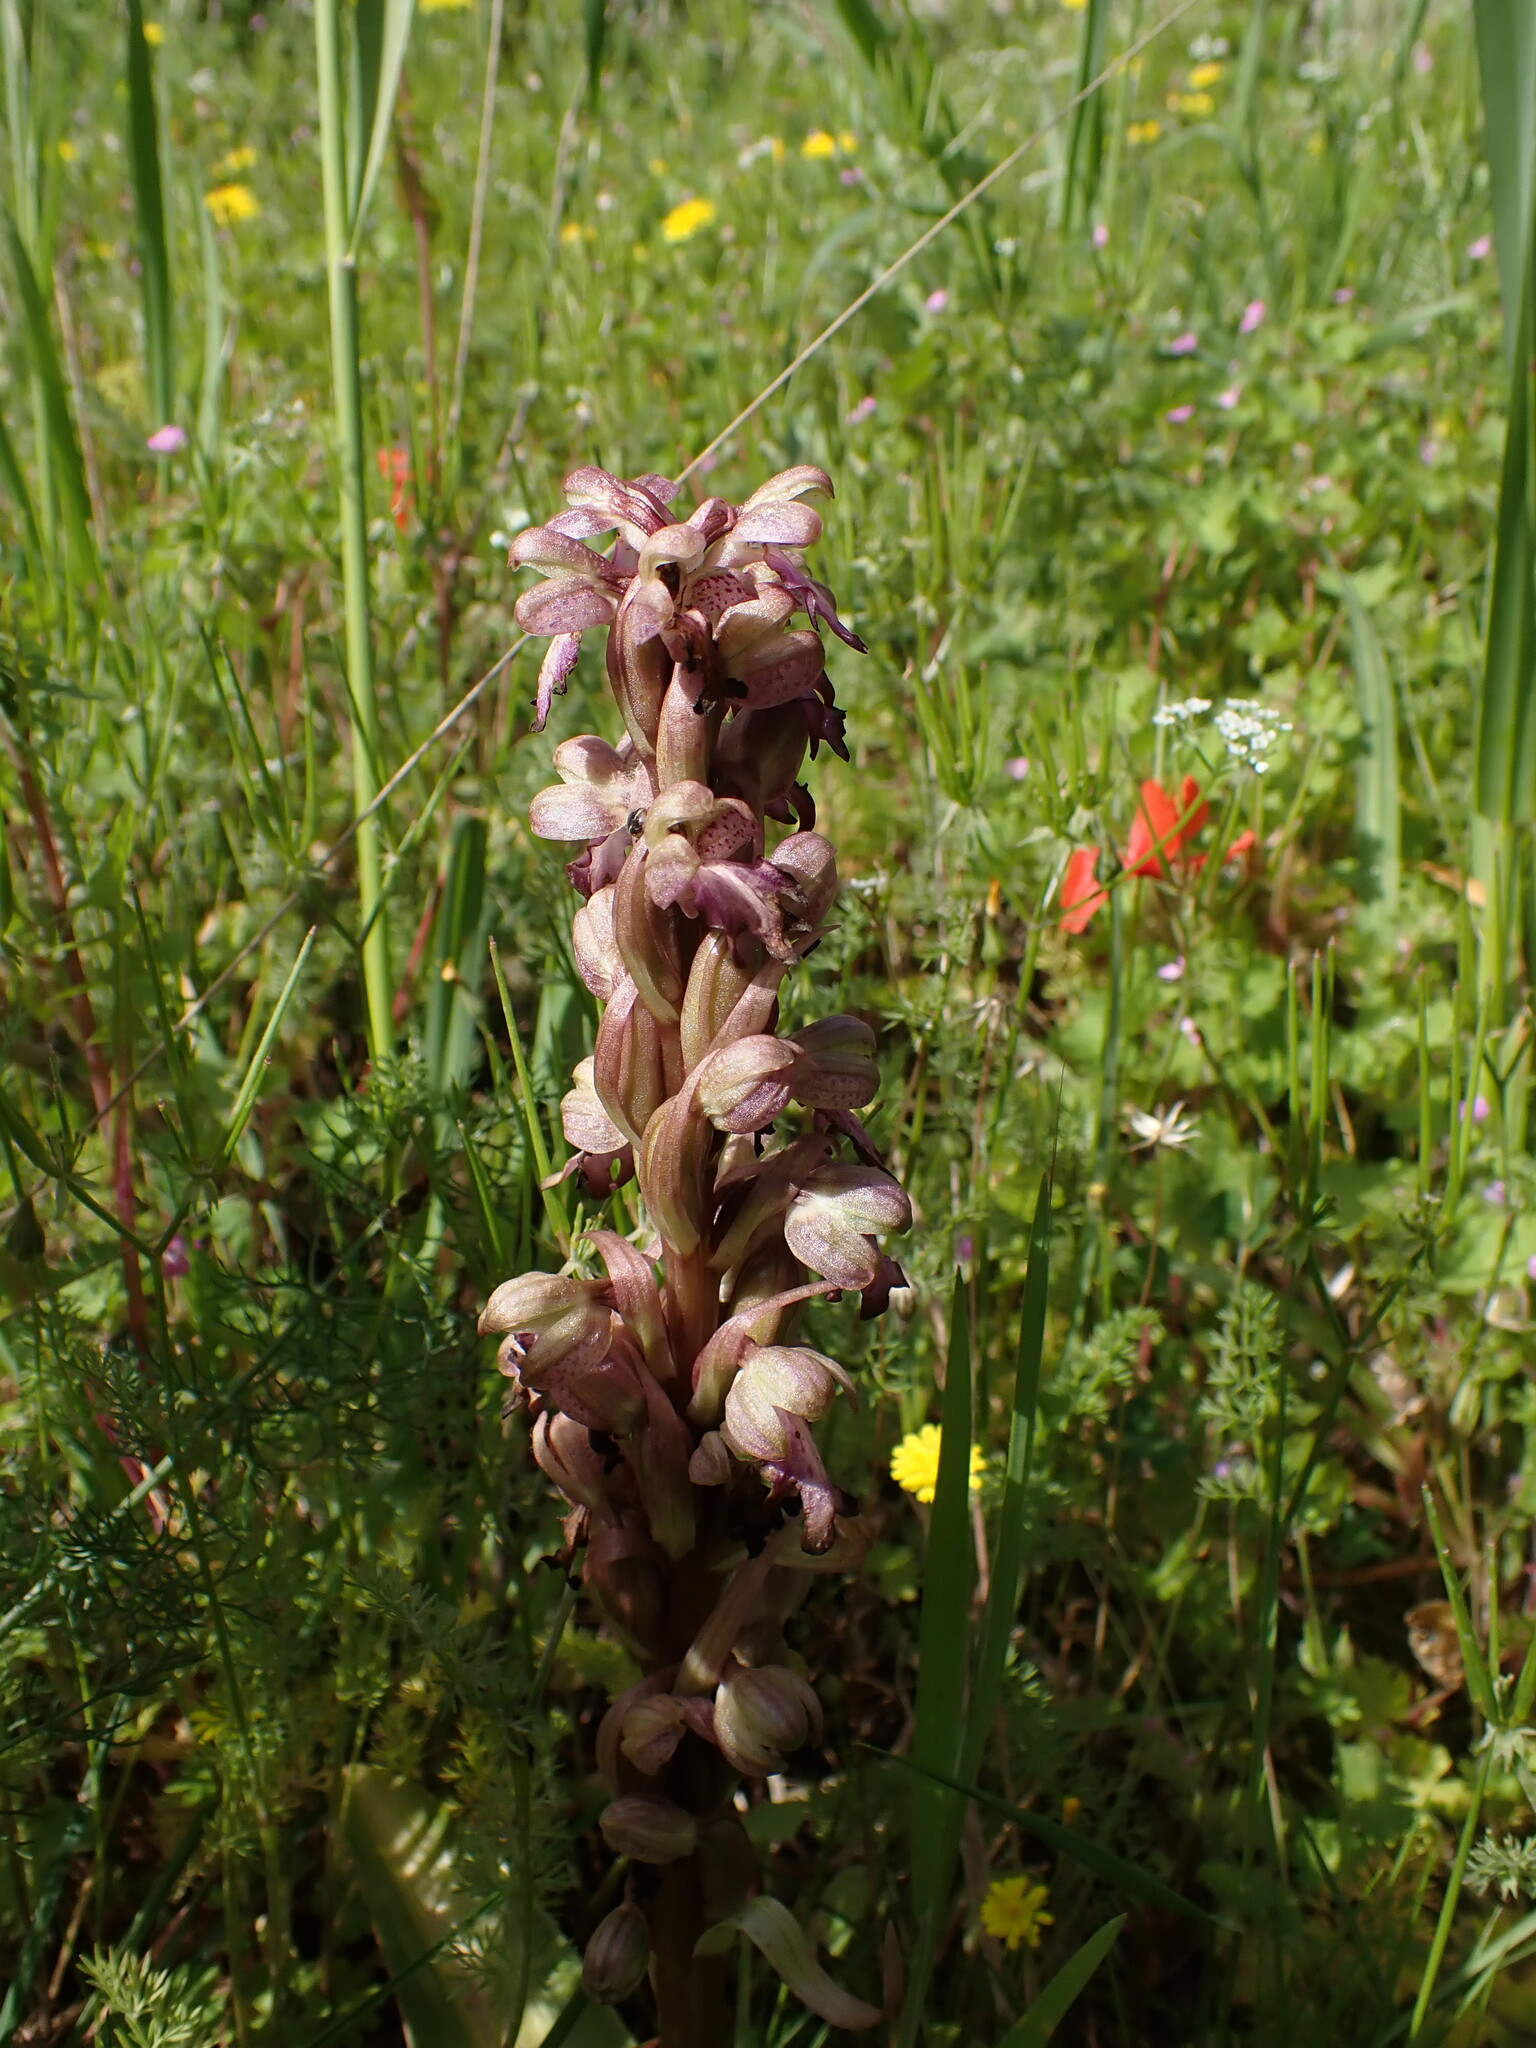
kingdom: Plantae
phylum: Tracheophyta
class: Liliopsida
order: Asparagales
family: Orchidaceae
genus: Himantoglossum
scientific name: Himantoglossum robertianum
